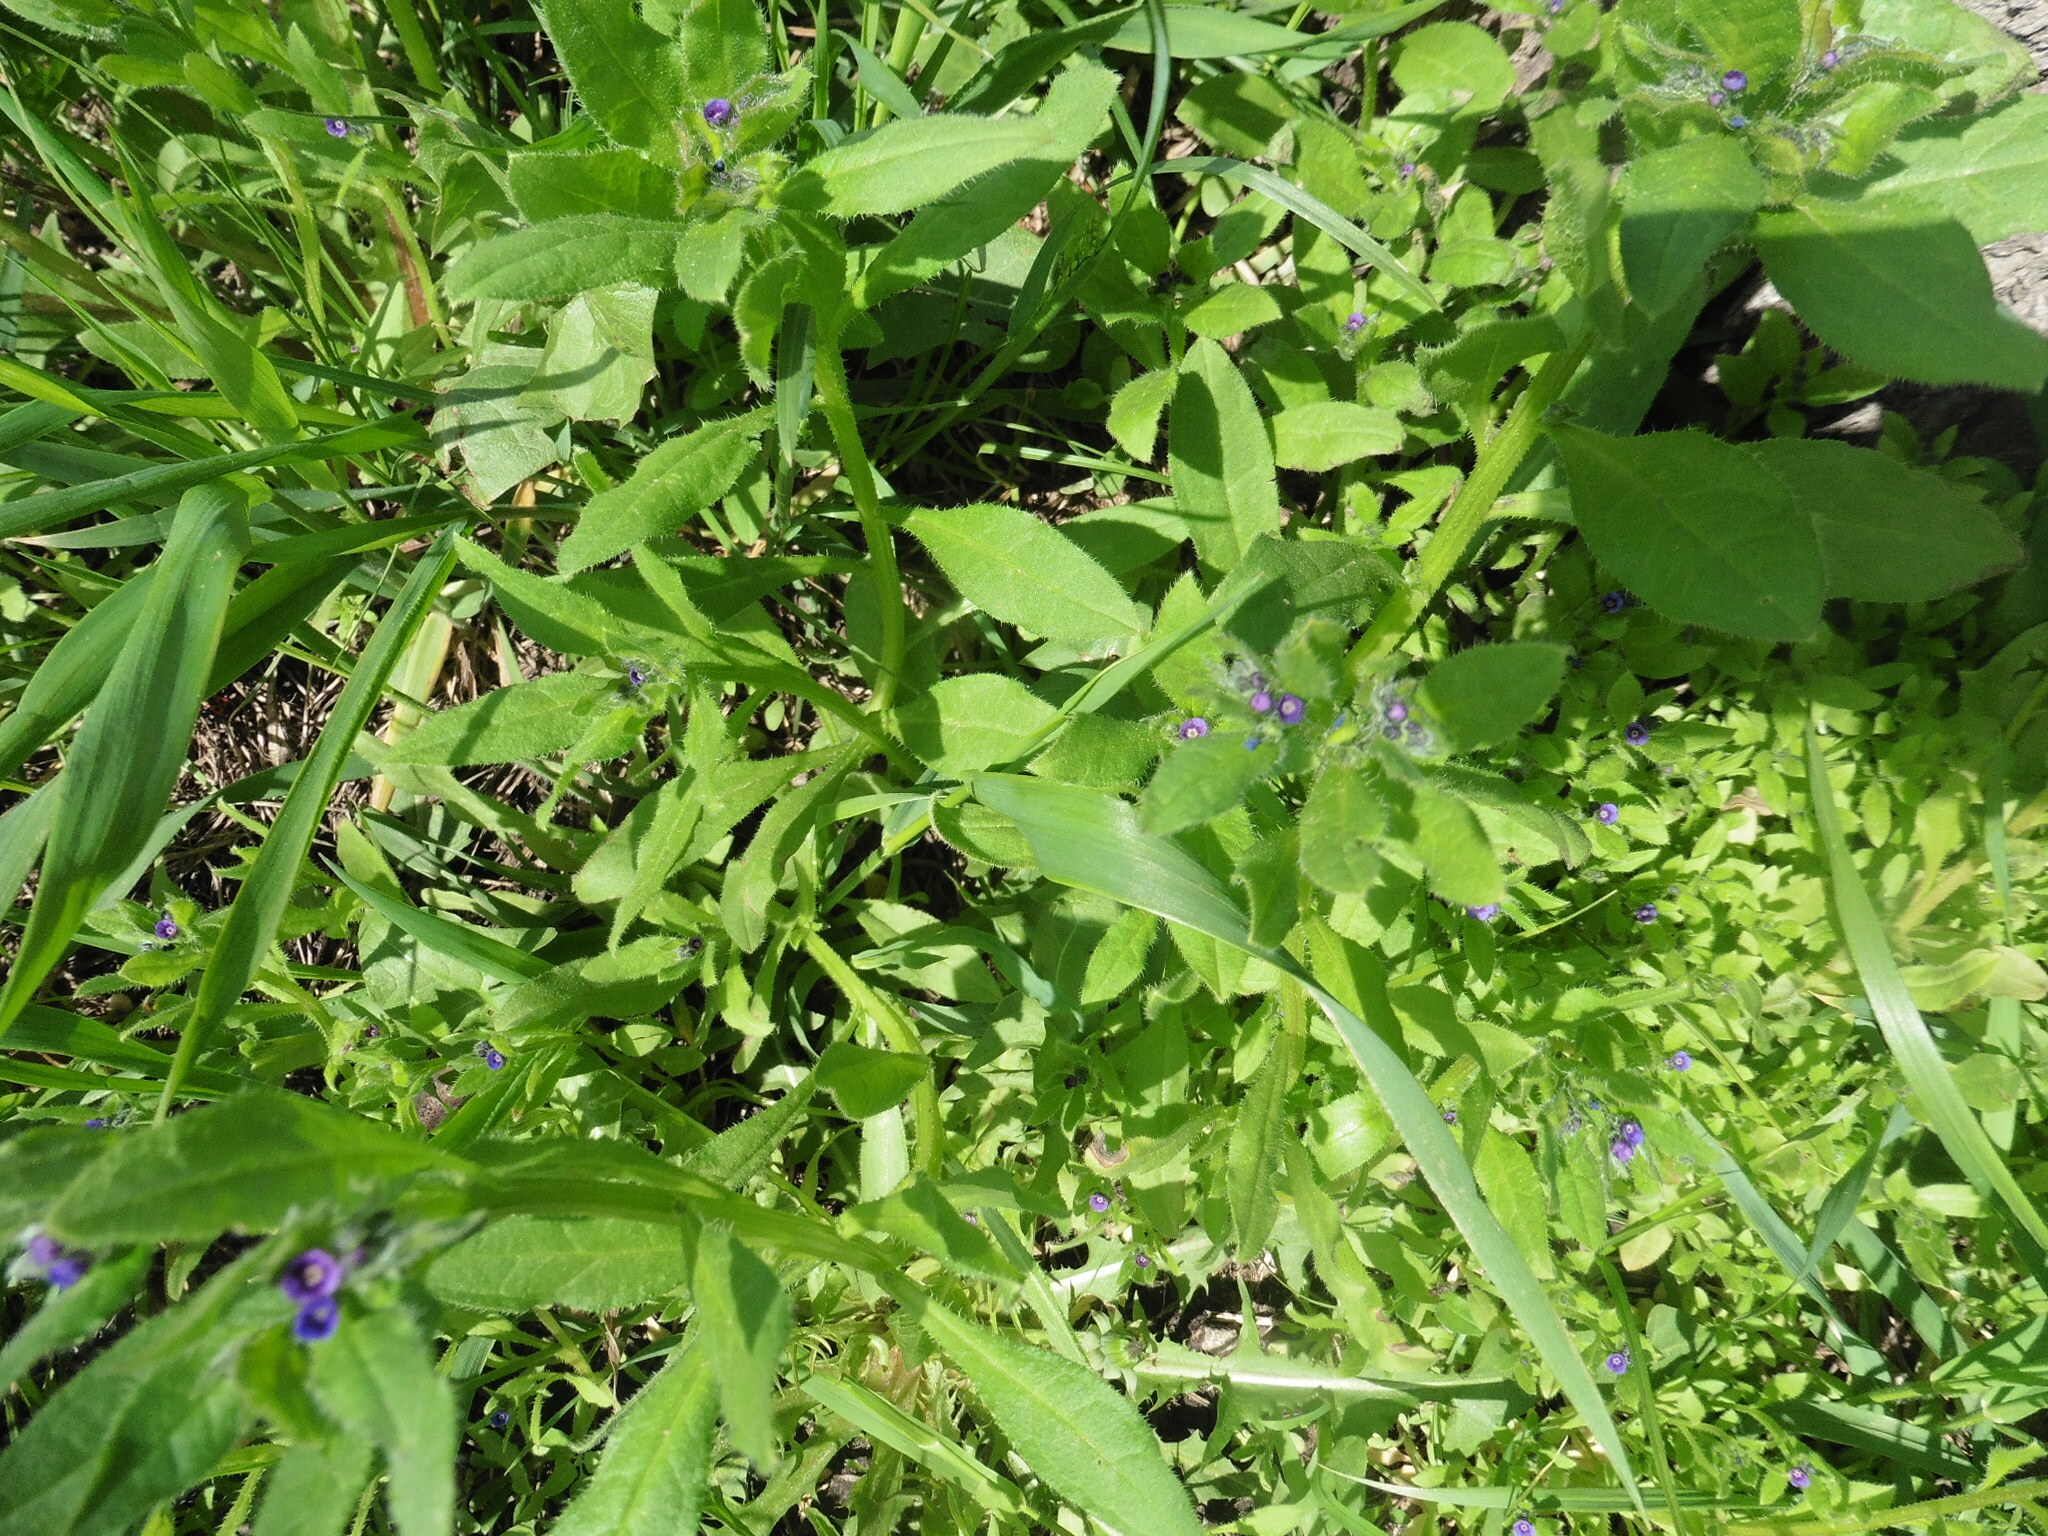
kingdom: Plantae
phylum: Tracheophyta
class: Magnoliopsida
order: Boraginales
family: Boraginaceae
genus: Asperugo
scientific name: Asperugo procumbens
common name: Madwort
